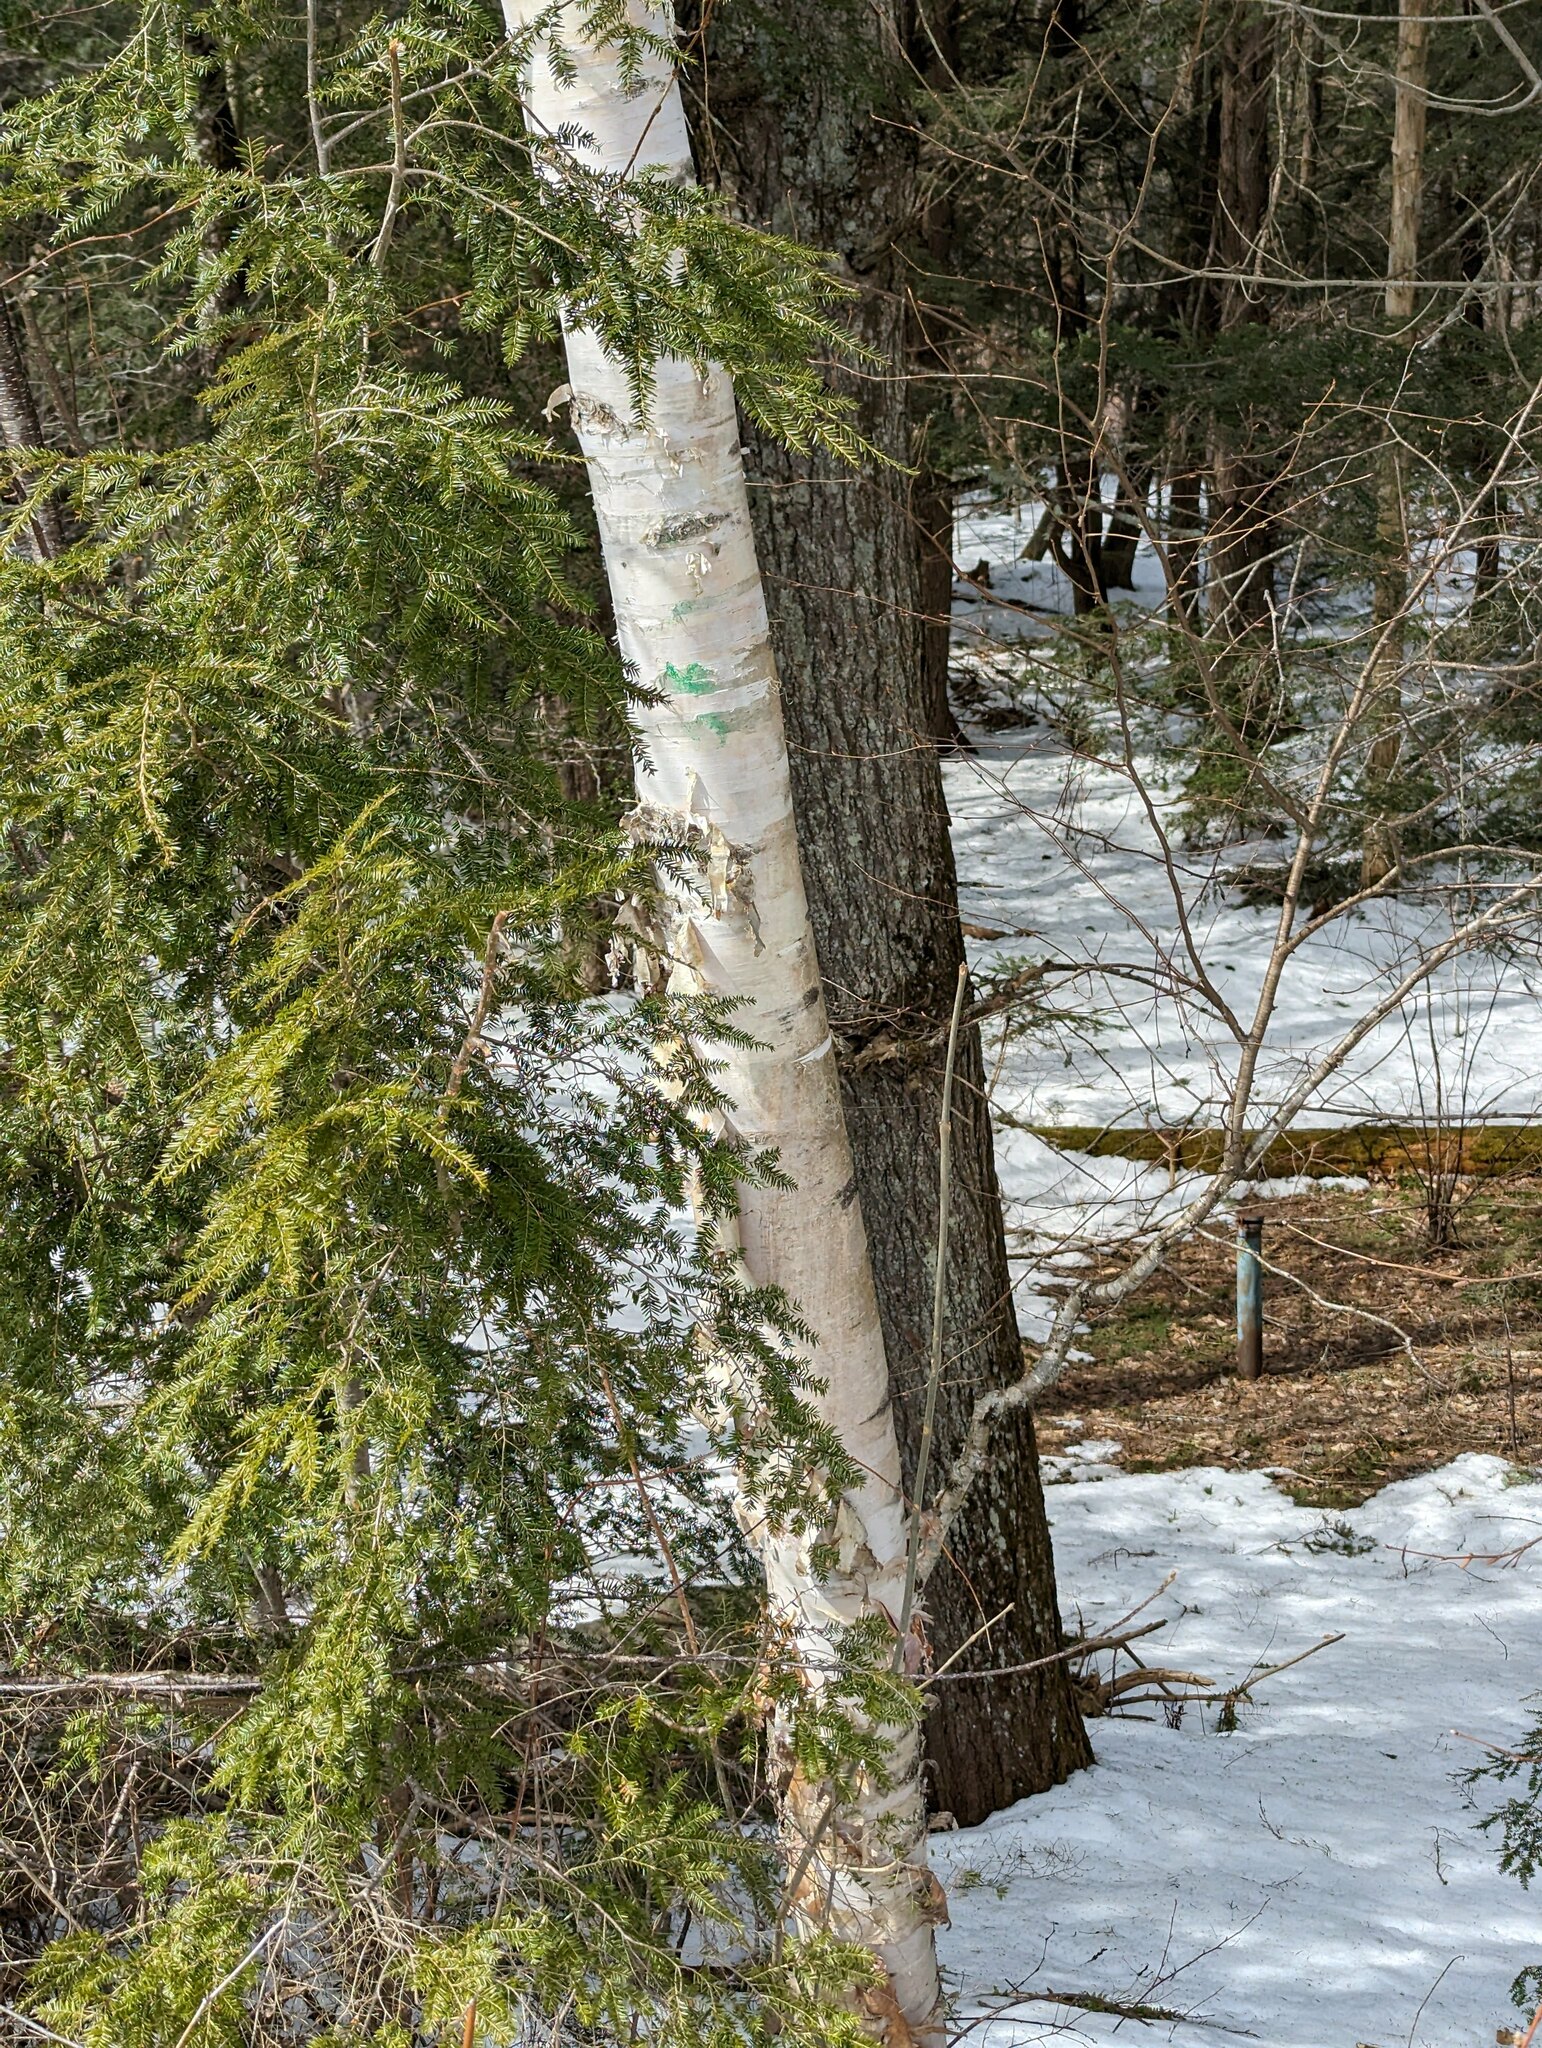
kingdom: Plantae
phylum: Tracheophyta
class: Pinopsida
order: Pinales
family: Pinaceae
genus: Tsuga
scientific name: Tsuga canadensis
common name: Eastern hemlock
